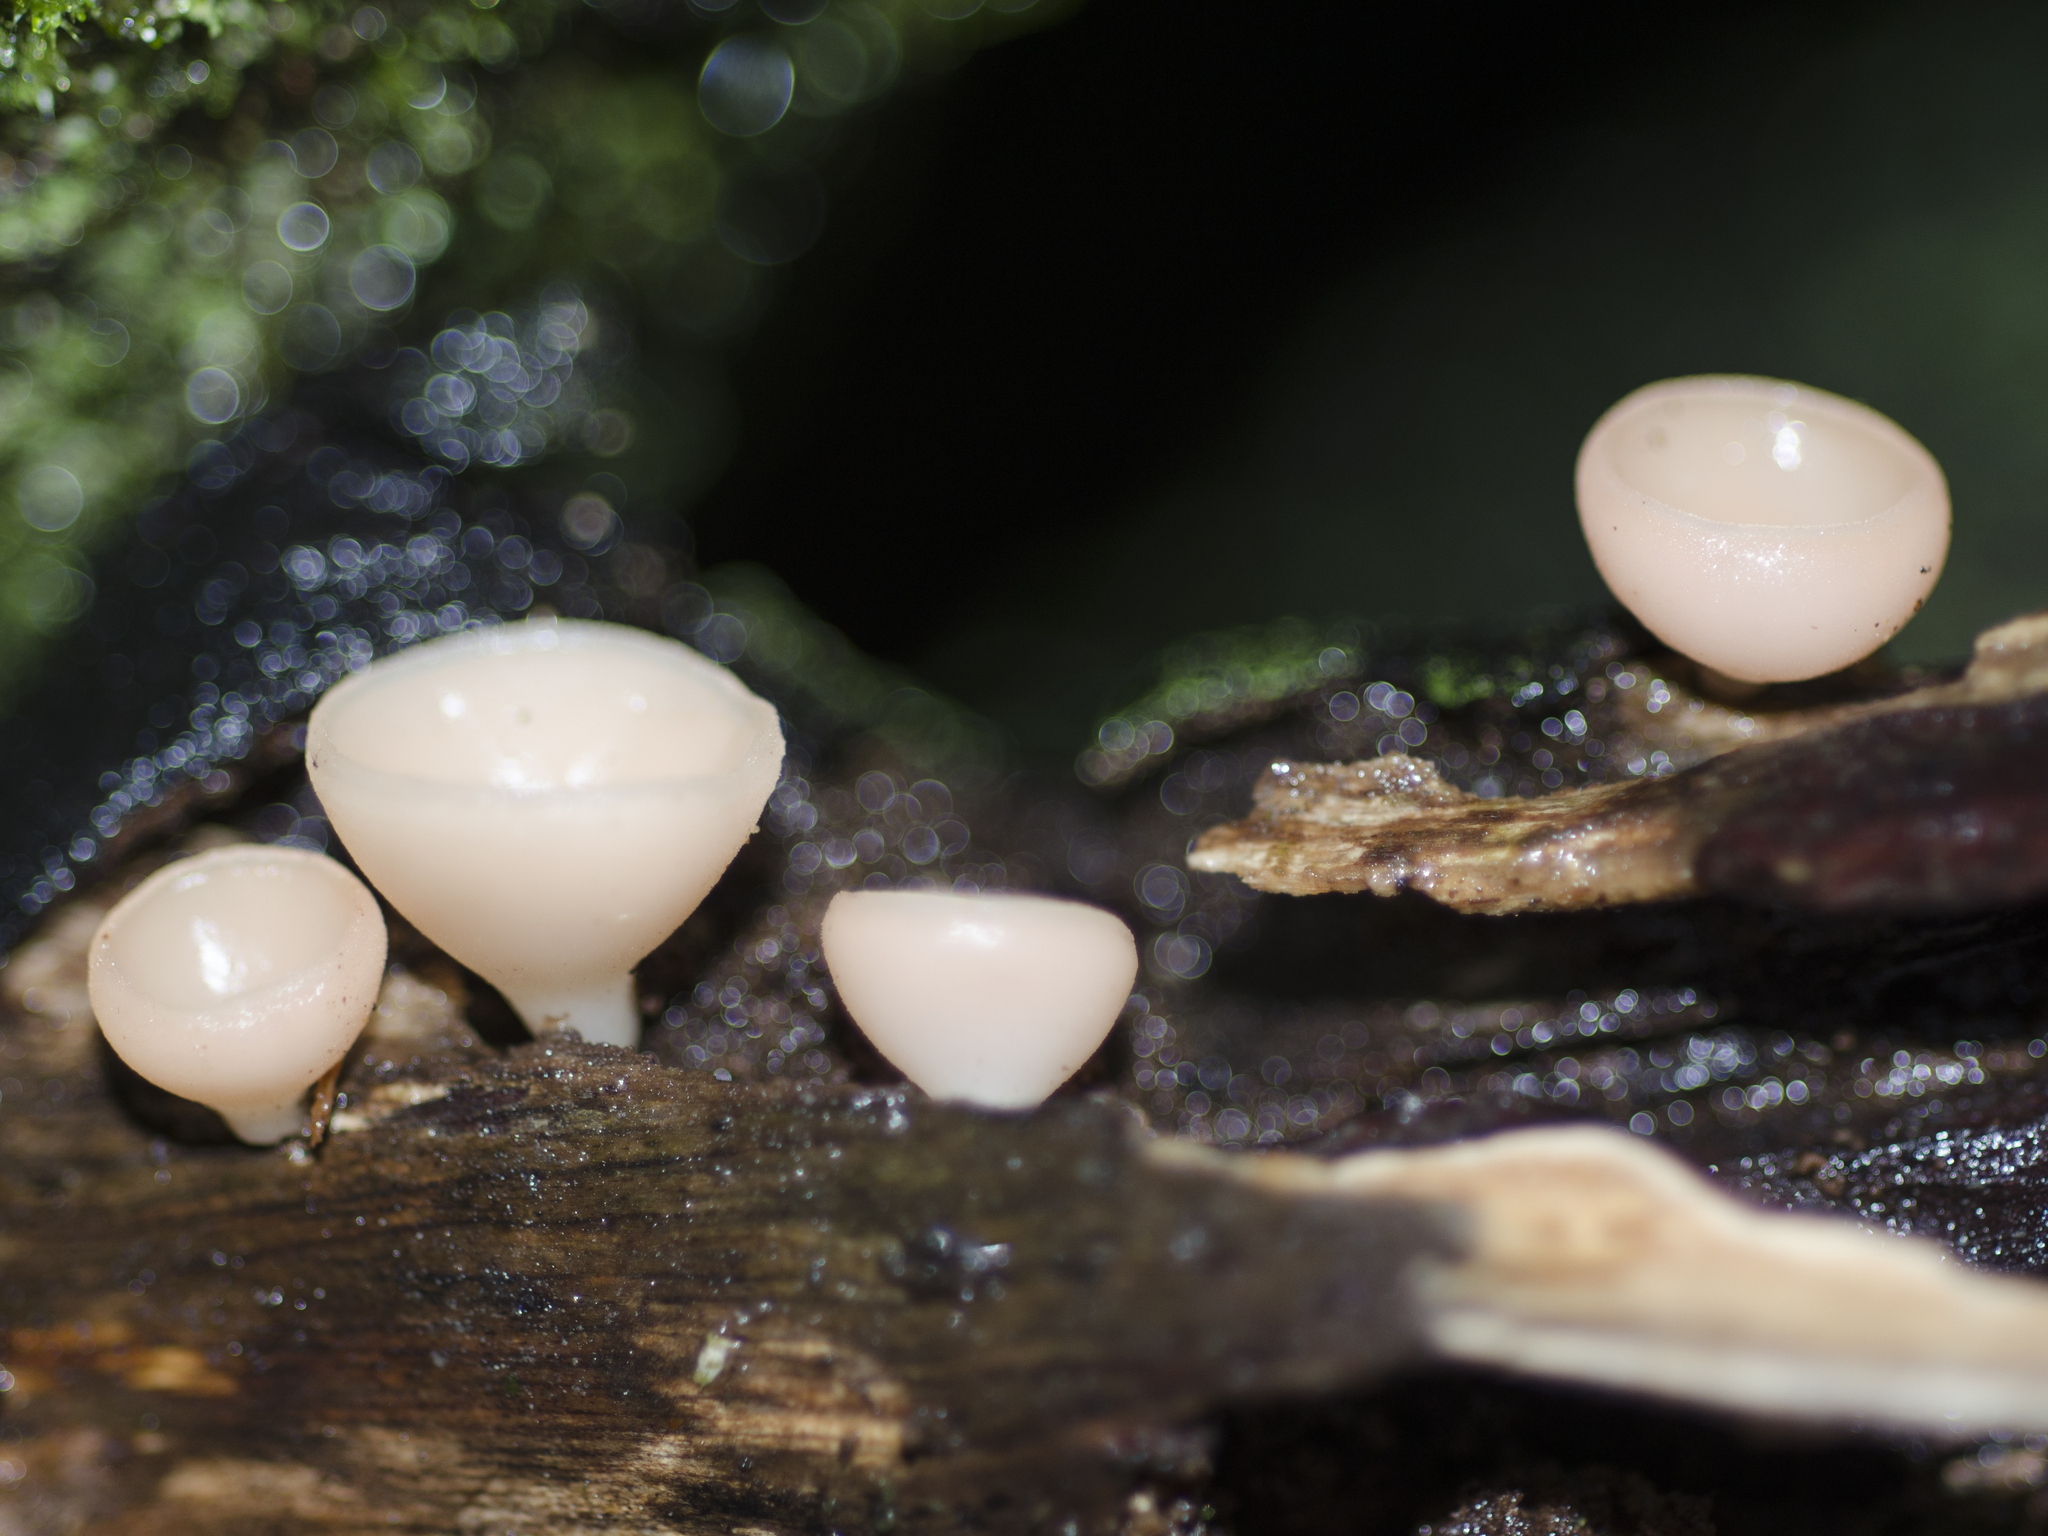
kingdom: Fungi
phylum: Ascomycota
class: Pezizomycetes
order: Pezizales
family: Sarcoscyphaceae
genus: Cookeina
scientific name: Cookeina colensoi
